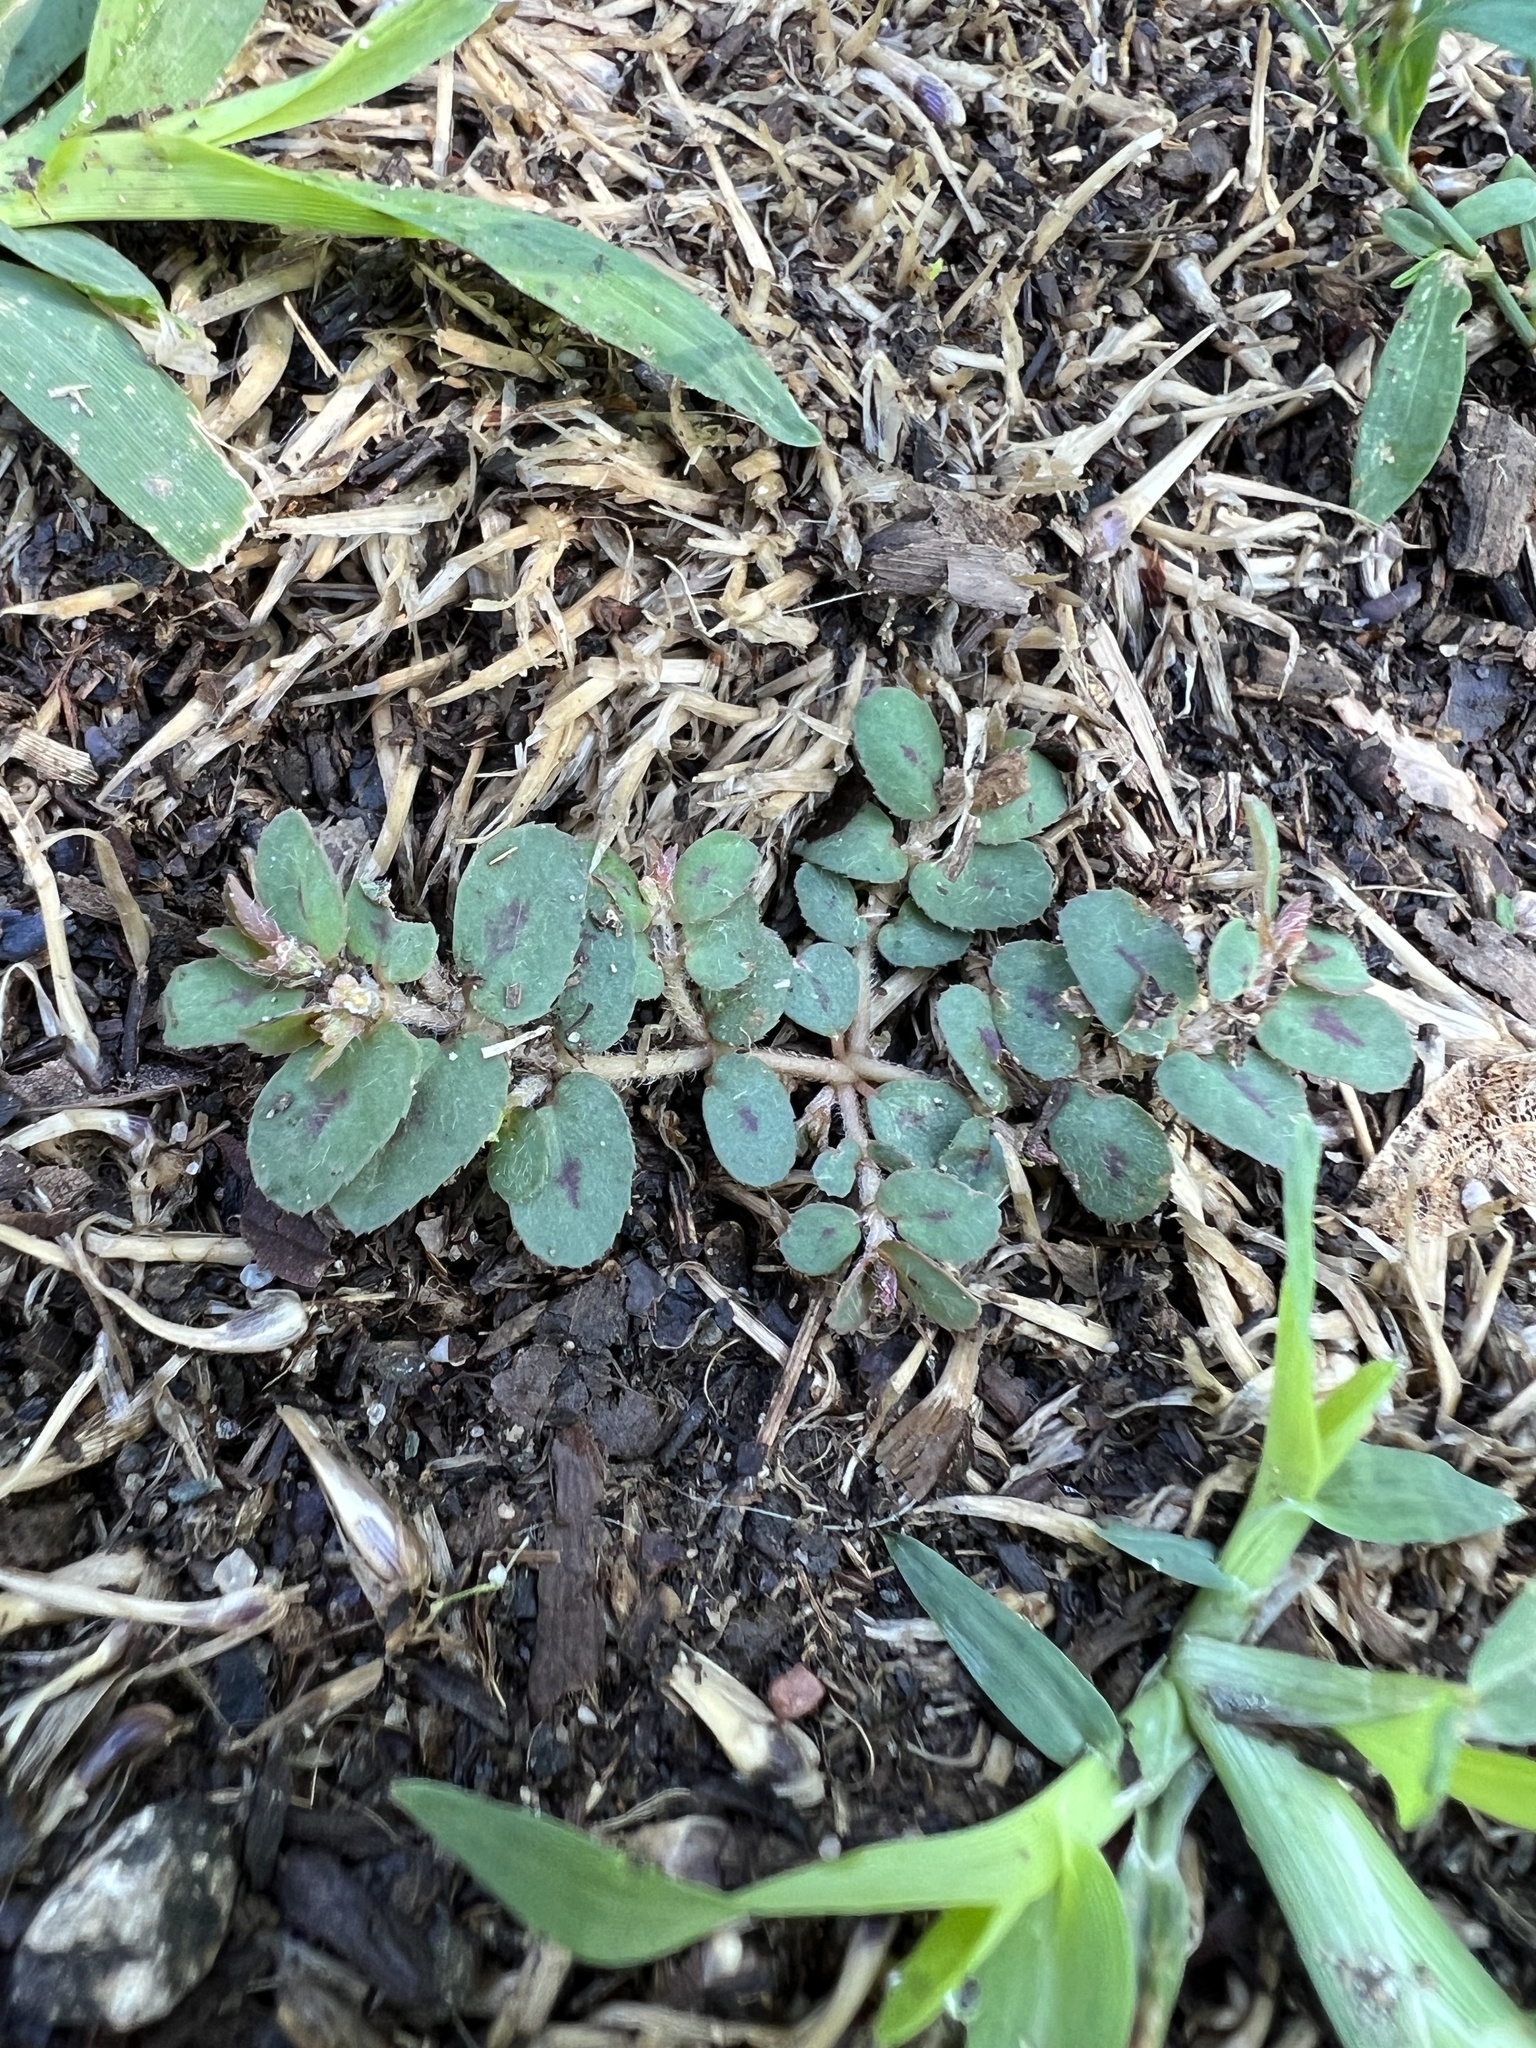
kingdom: Plantae
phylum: Tracheophyta
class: Magnoliopsida
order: Malpighiales
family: Euphorbiaceae
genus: Euphorbia
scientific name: Euphorbia maculata
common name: Spotted spurge
